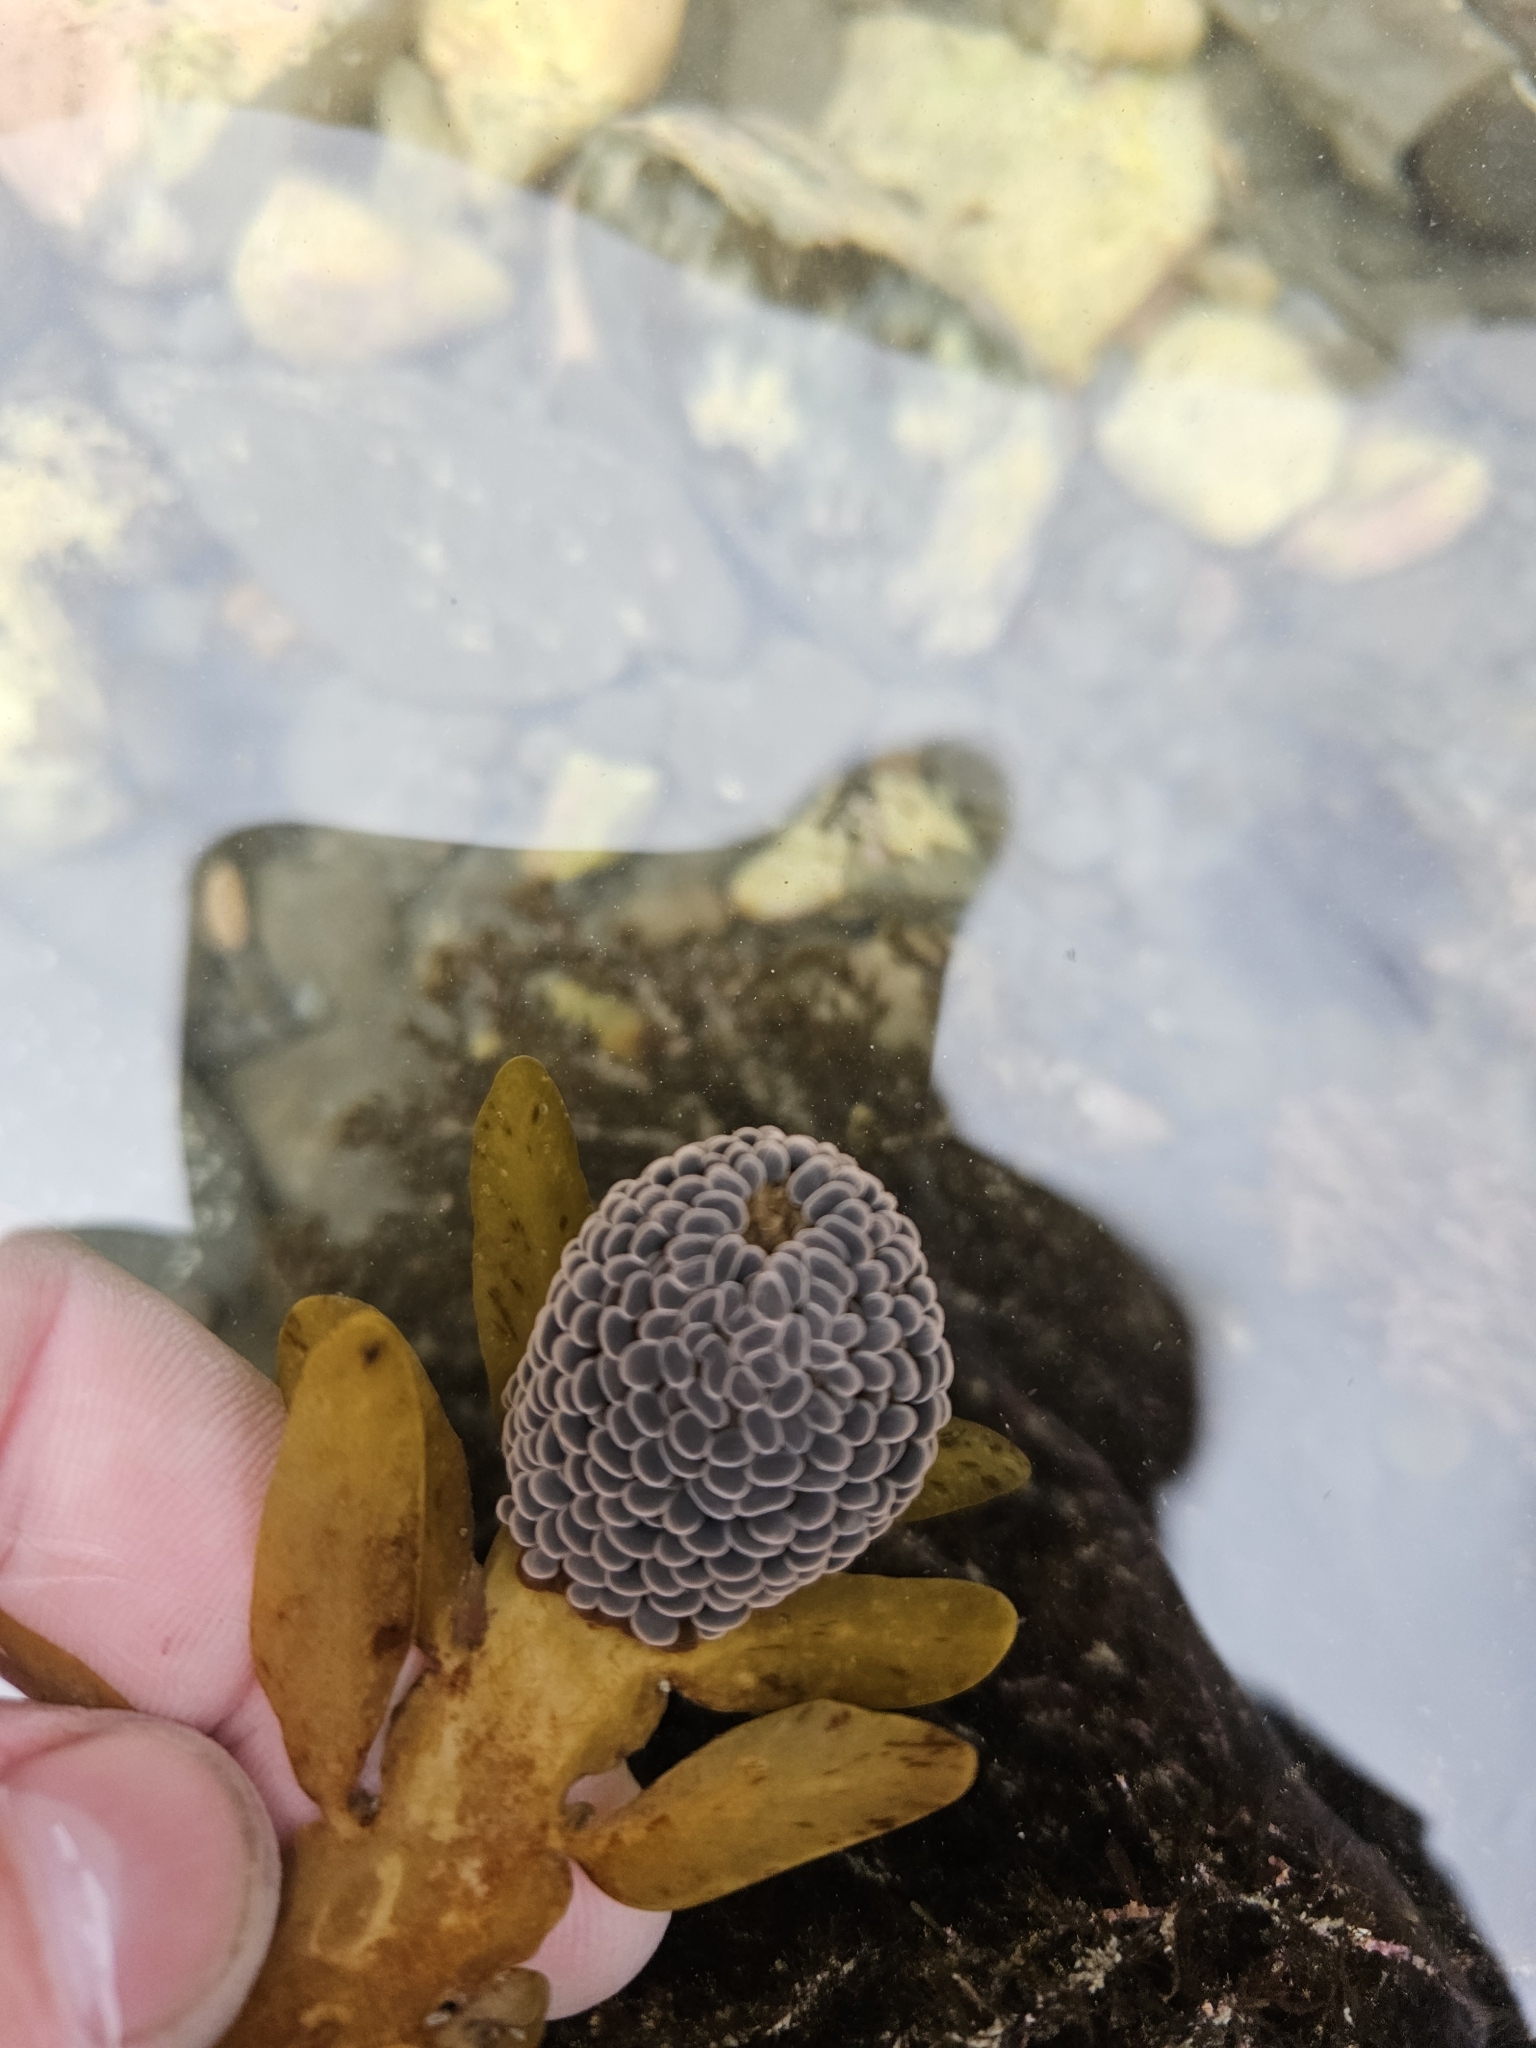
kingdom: Animalia
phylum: Cnidaria
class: Anthozoa
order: Actiniaria
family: Actiniidae
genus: Phlyctenactis
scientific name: Phlyctenactis tuberculosa
